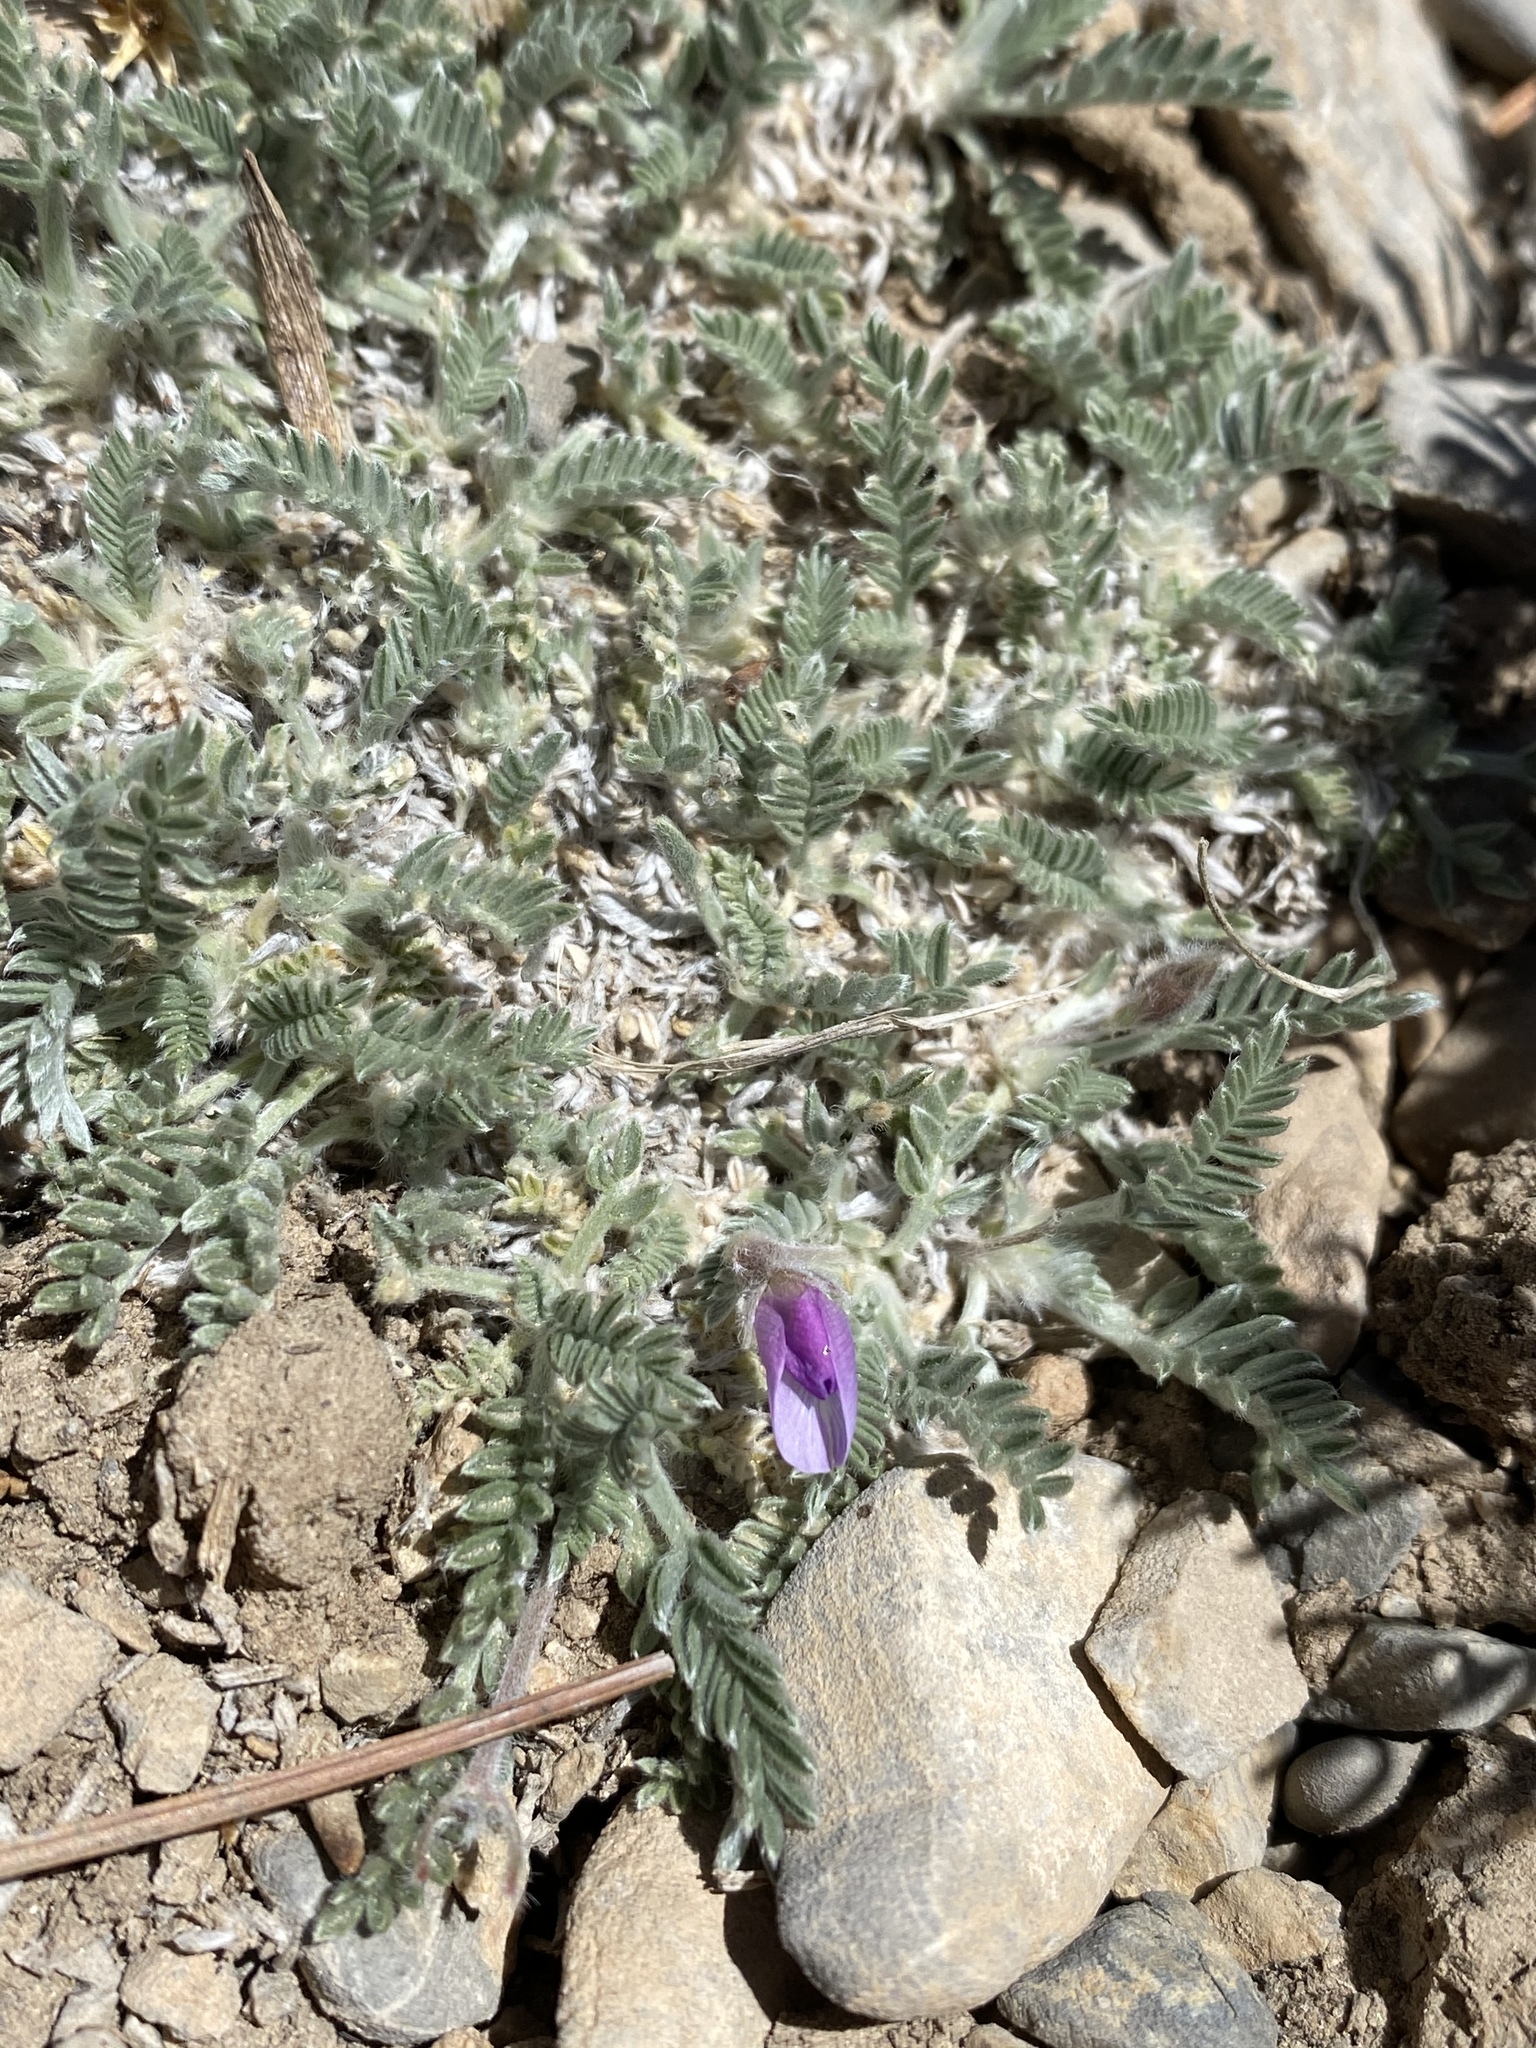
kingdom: Plantae
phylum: Tracheophyta
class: Magnoliopsida
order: Fabales
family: Fabaceae
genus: Oxytropis
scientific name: Oxytropis oreophila
